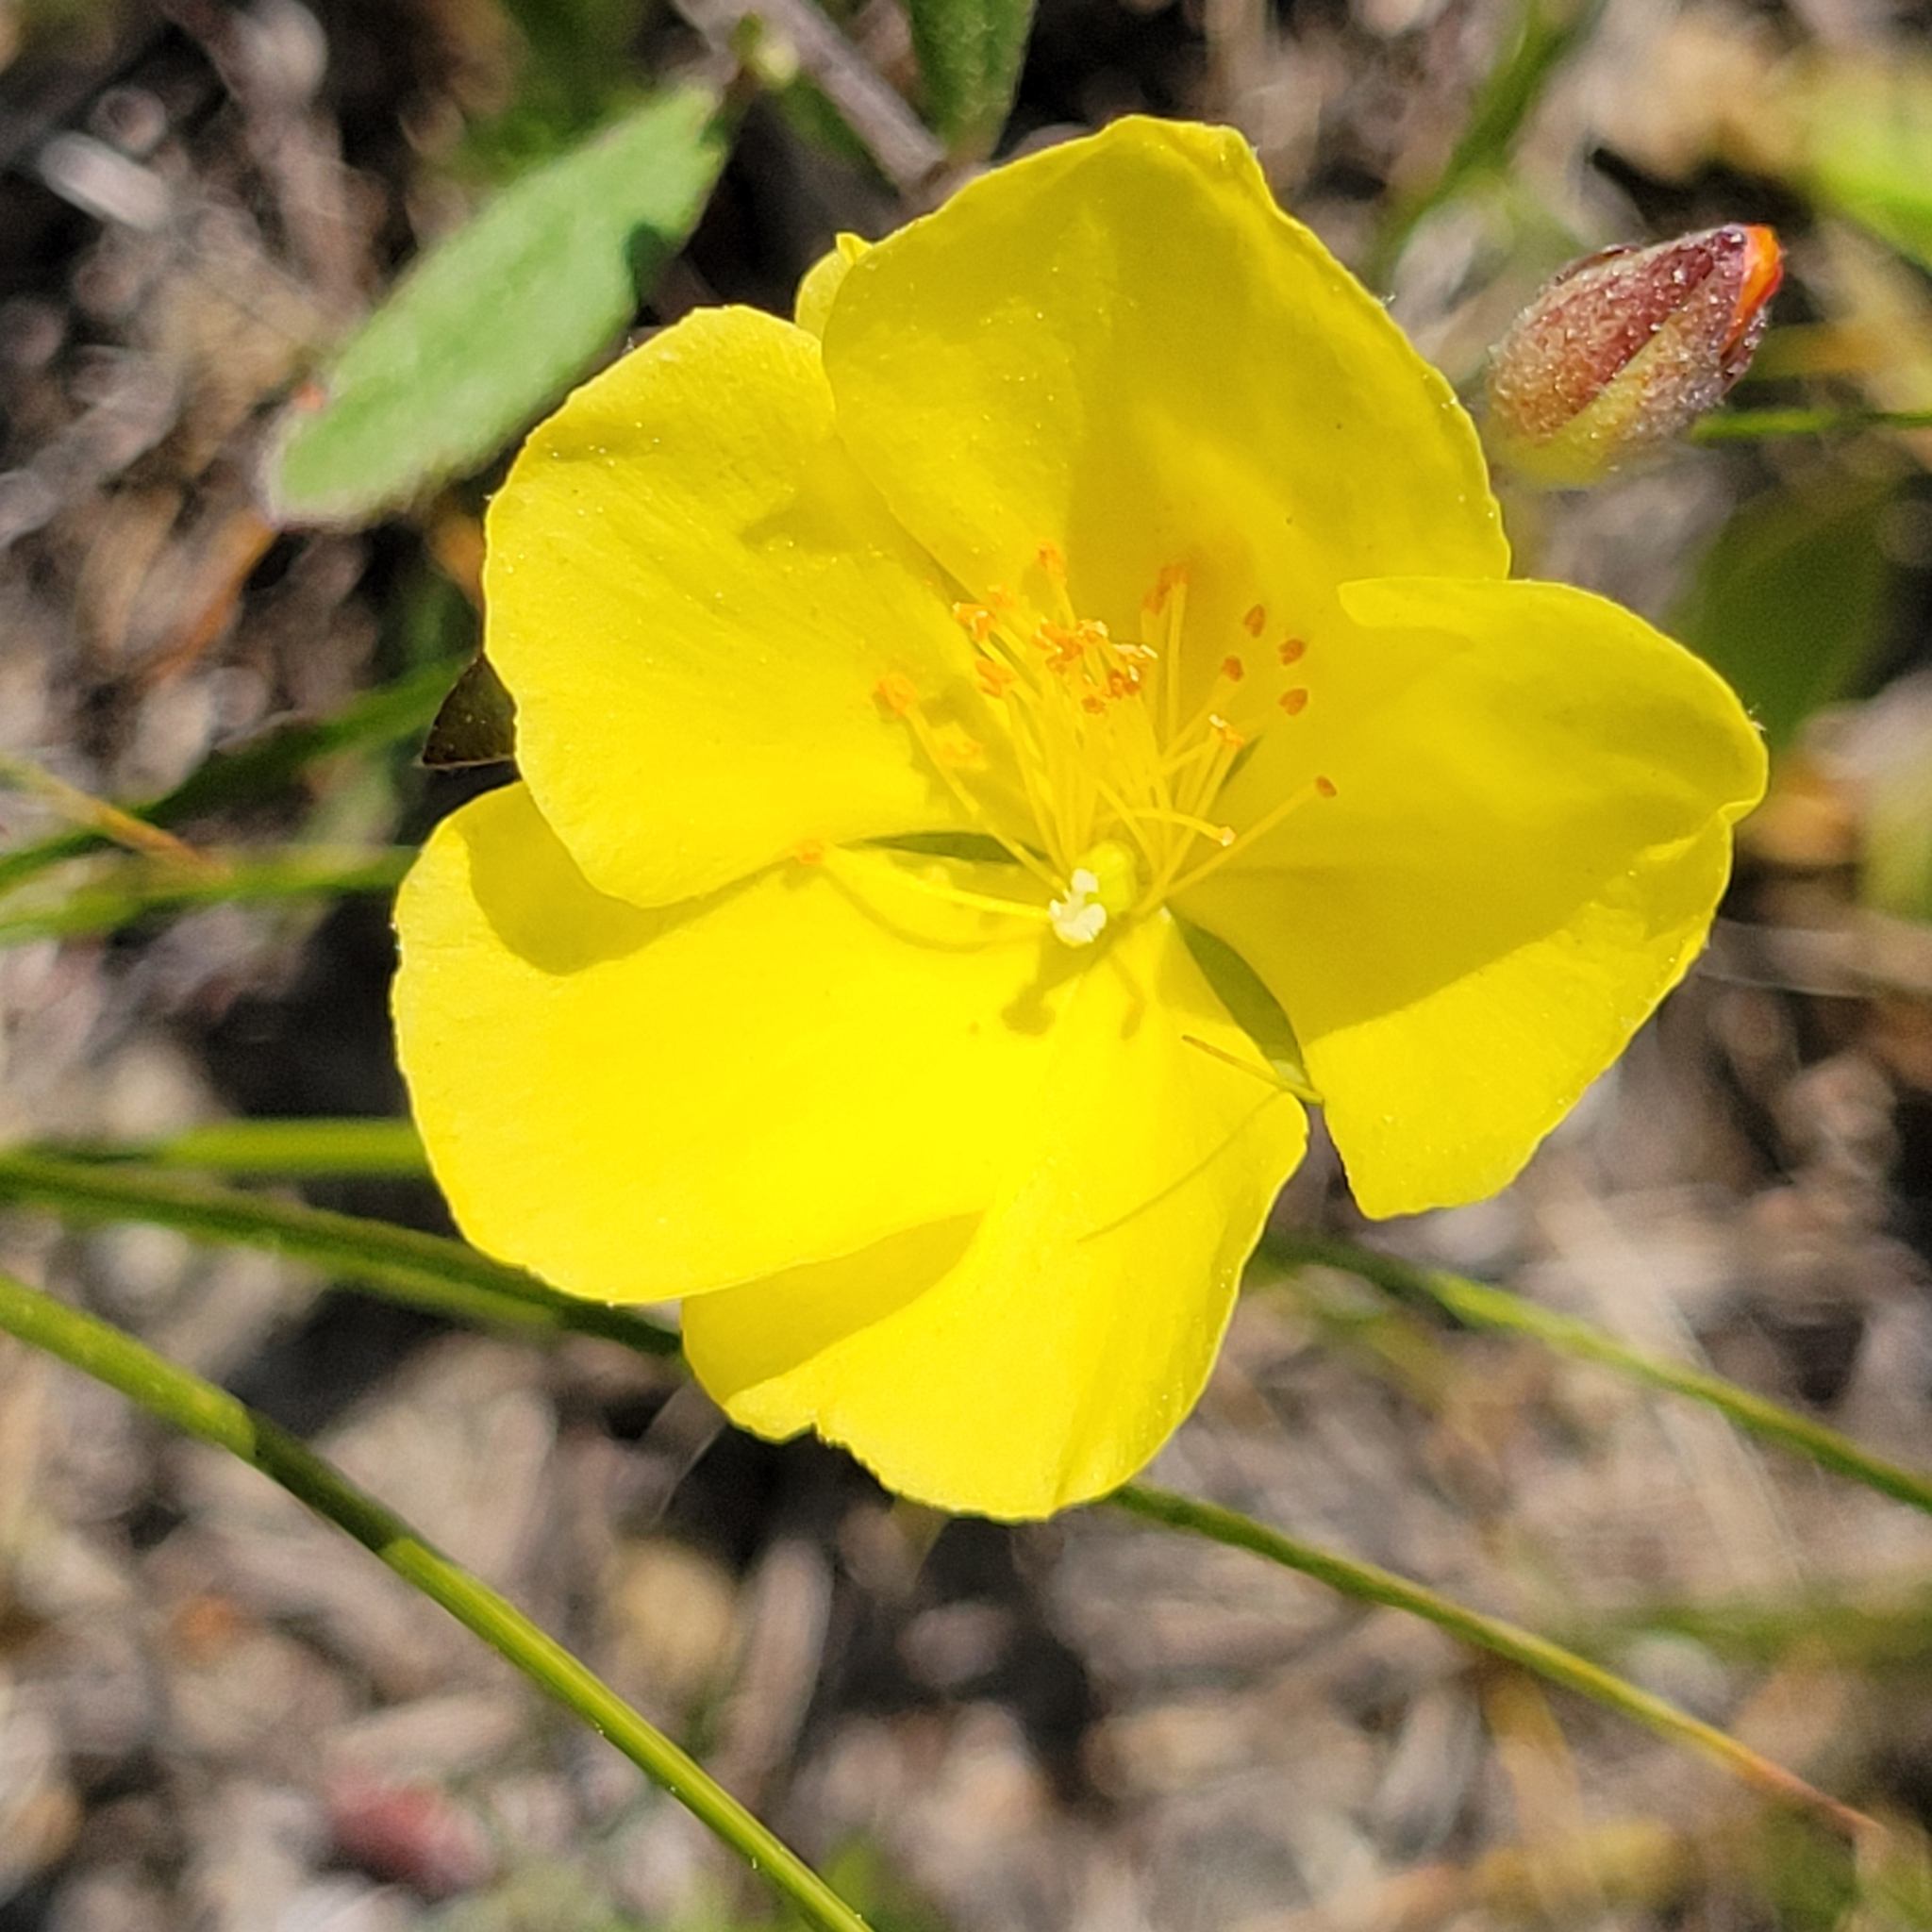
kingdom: Plantae
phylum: Tracheophyta
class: Magnoliopsida
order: Malvales
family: Cistaceae
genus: Crocanthemum
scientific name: Crocanthemum canadense
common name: Canada frostweed
